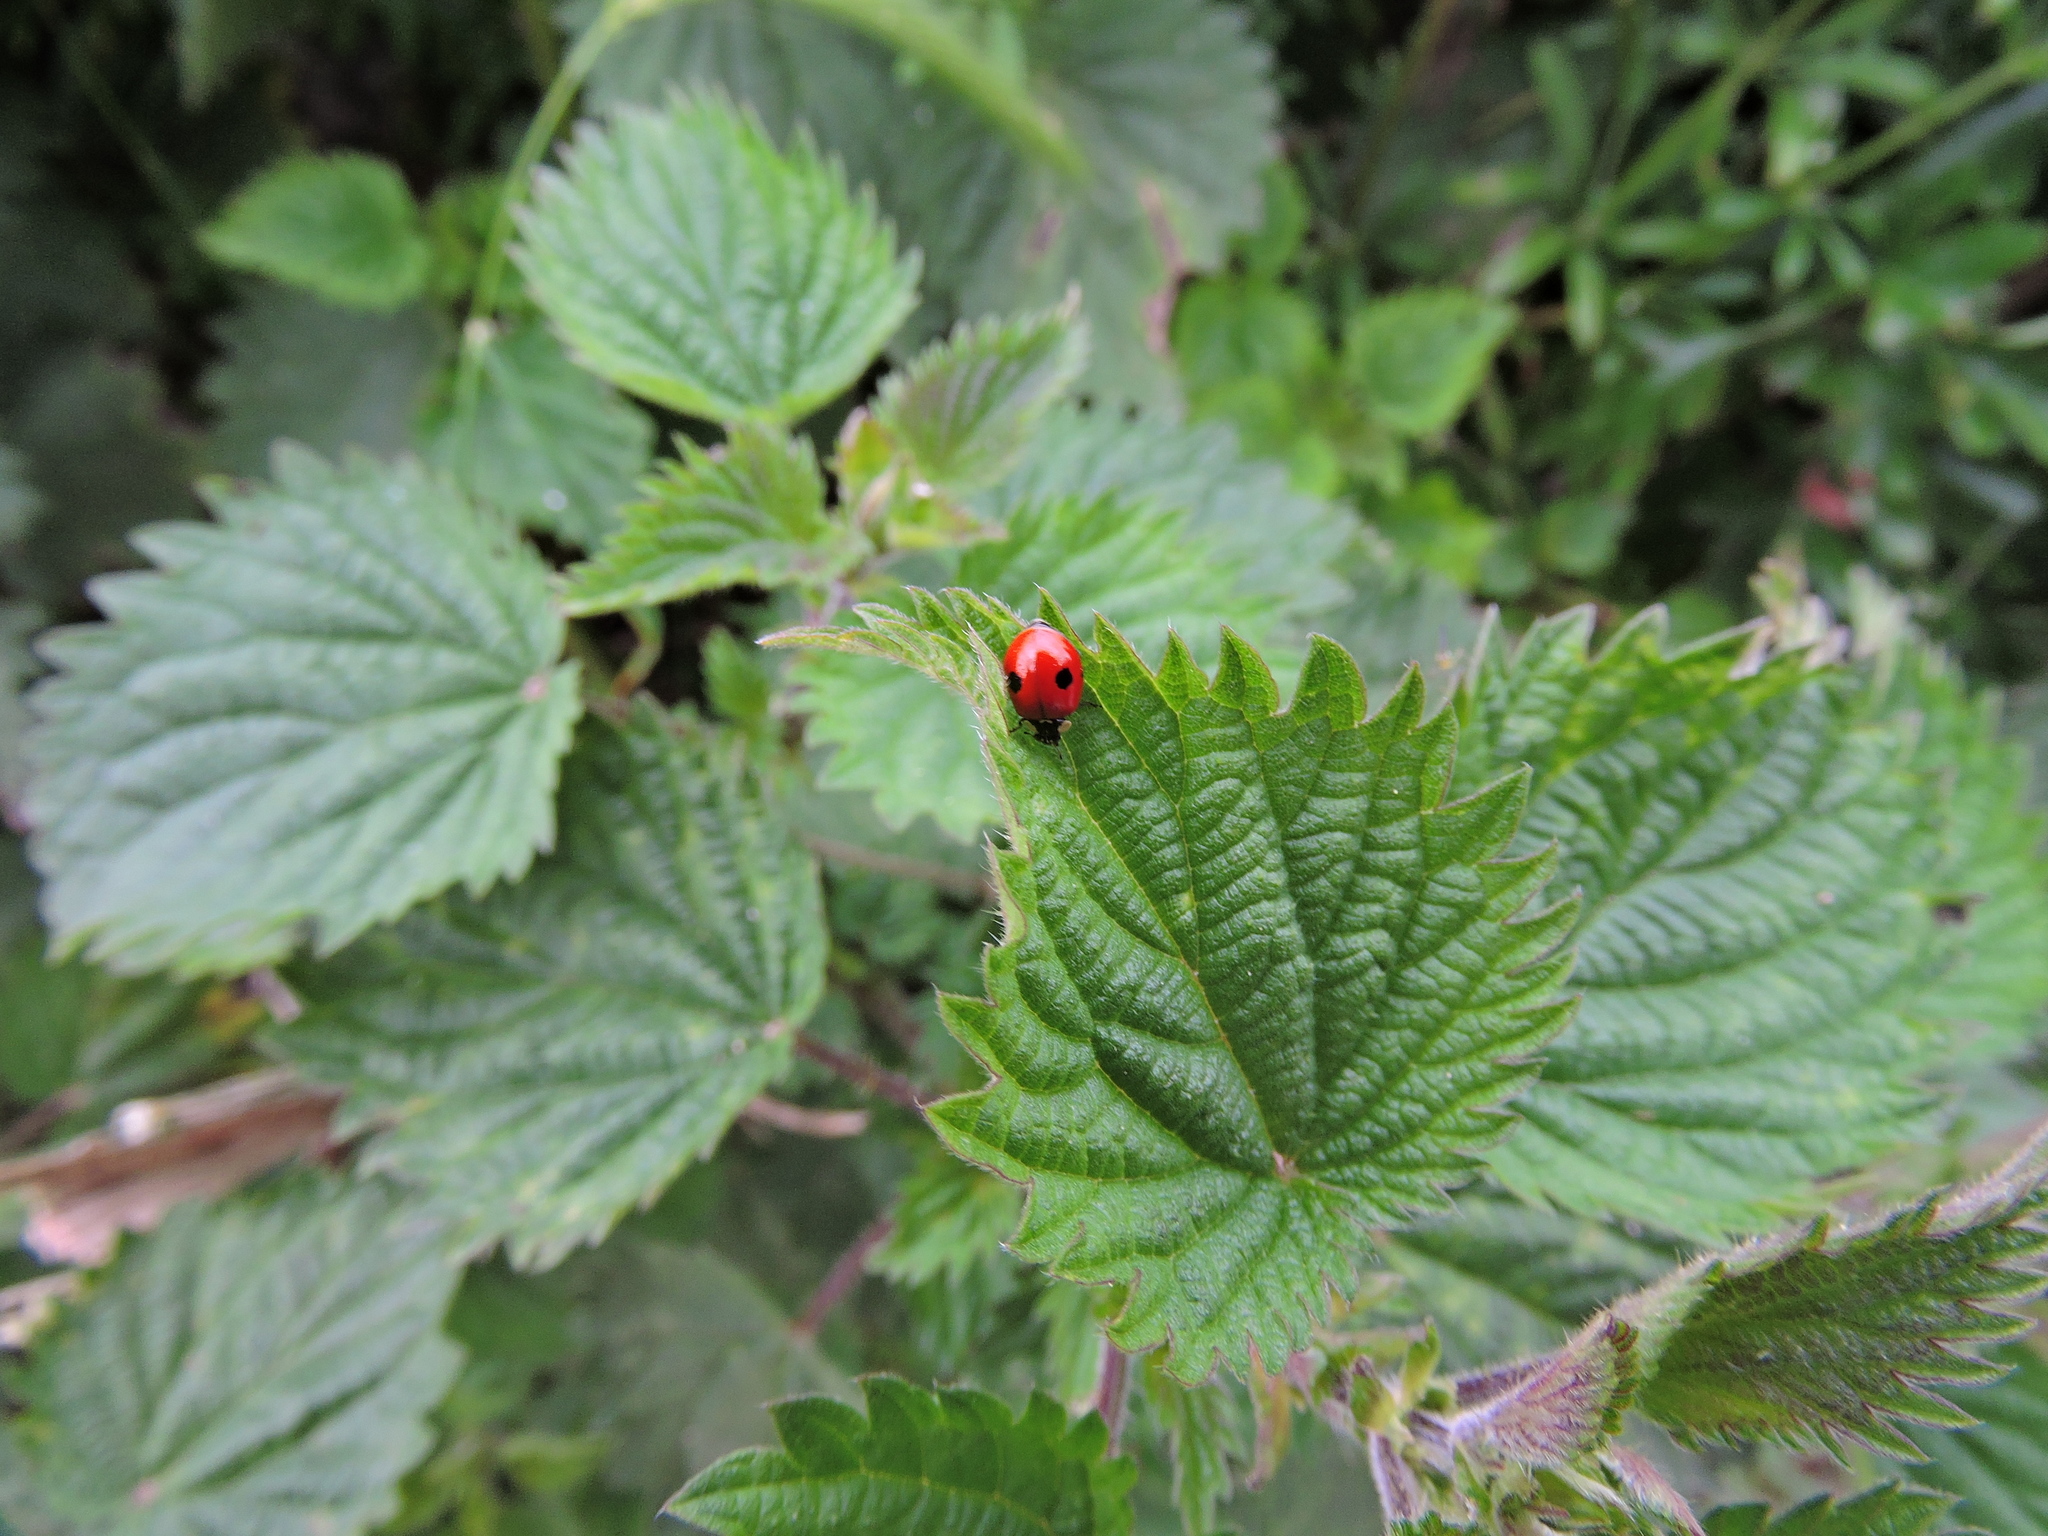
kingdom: Animalia
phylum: Arthropoda
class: Insecta
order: Coleoptera
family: Coccinellidae
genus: Adalia
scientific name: Adalia bipunctata
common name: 2-spot ladybird
